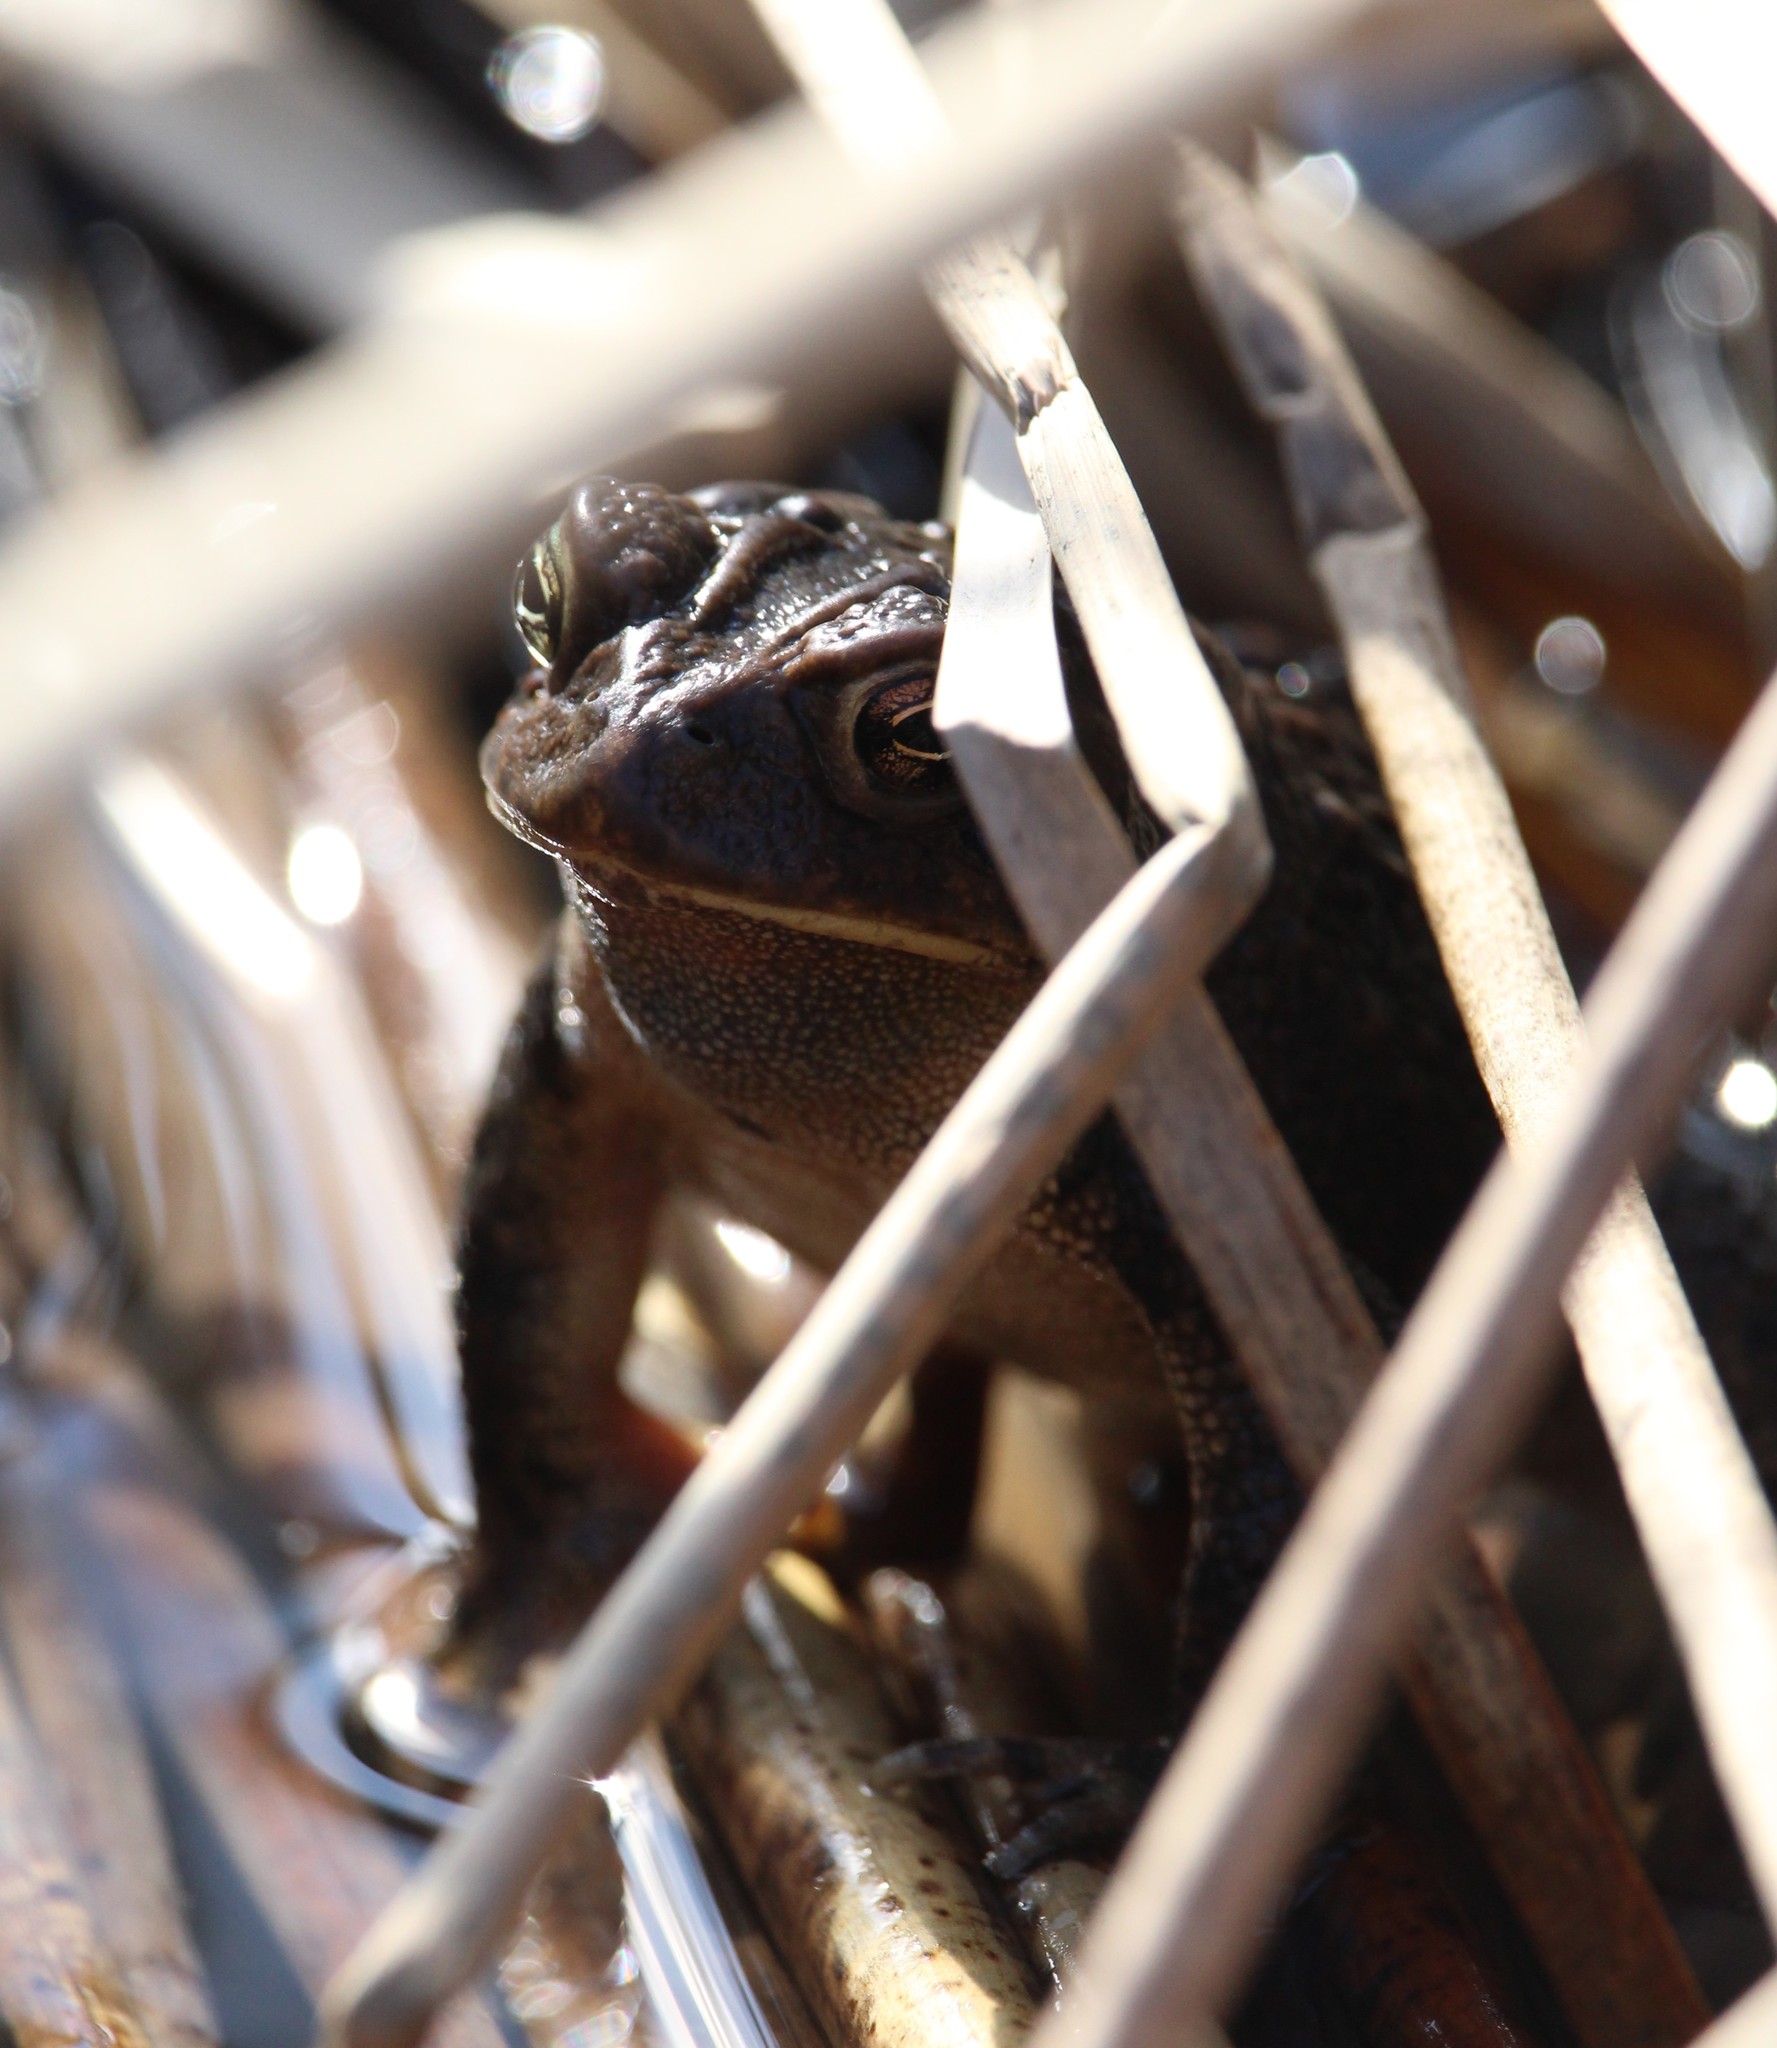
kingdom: Animalia
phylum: Chordata
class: Amphibia
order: Anura
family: Bufonidae
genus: Anaxyrus
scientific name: Anaxyrus americanus
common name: American toad
